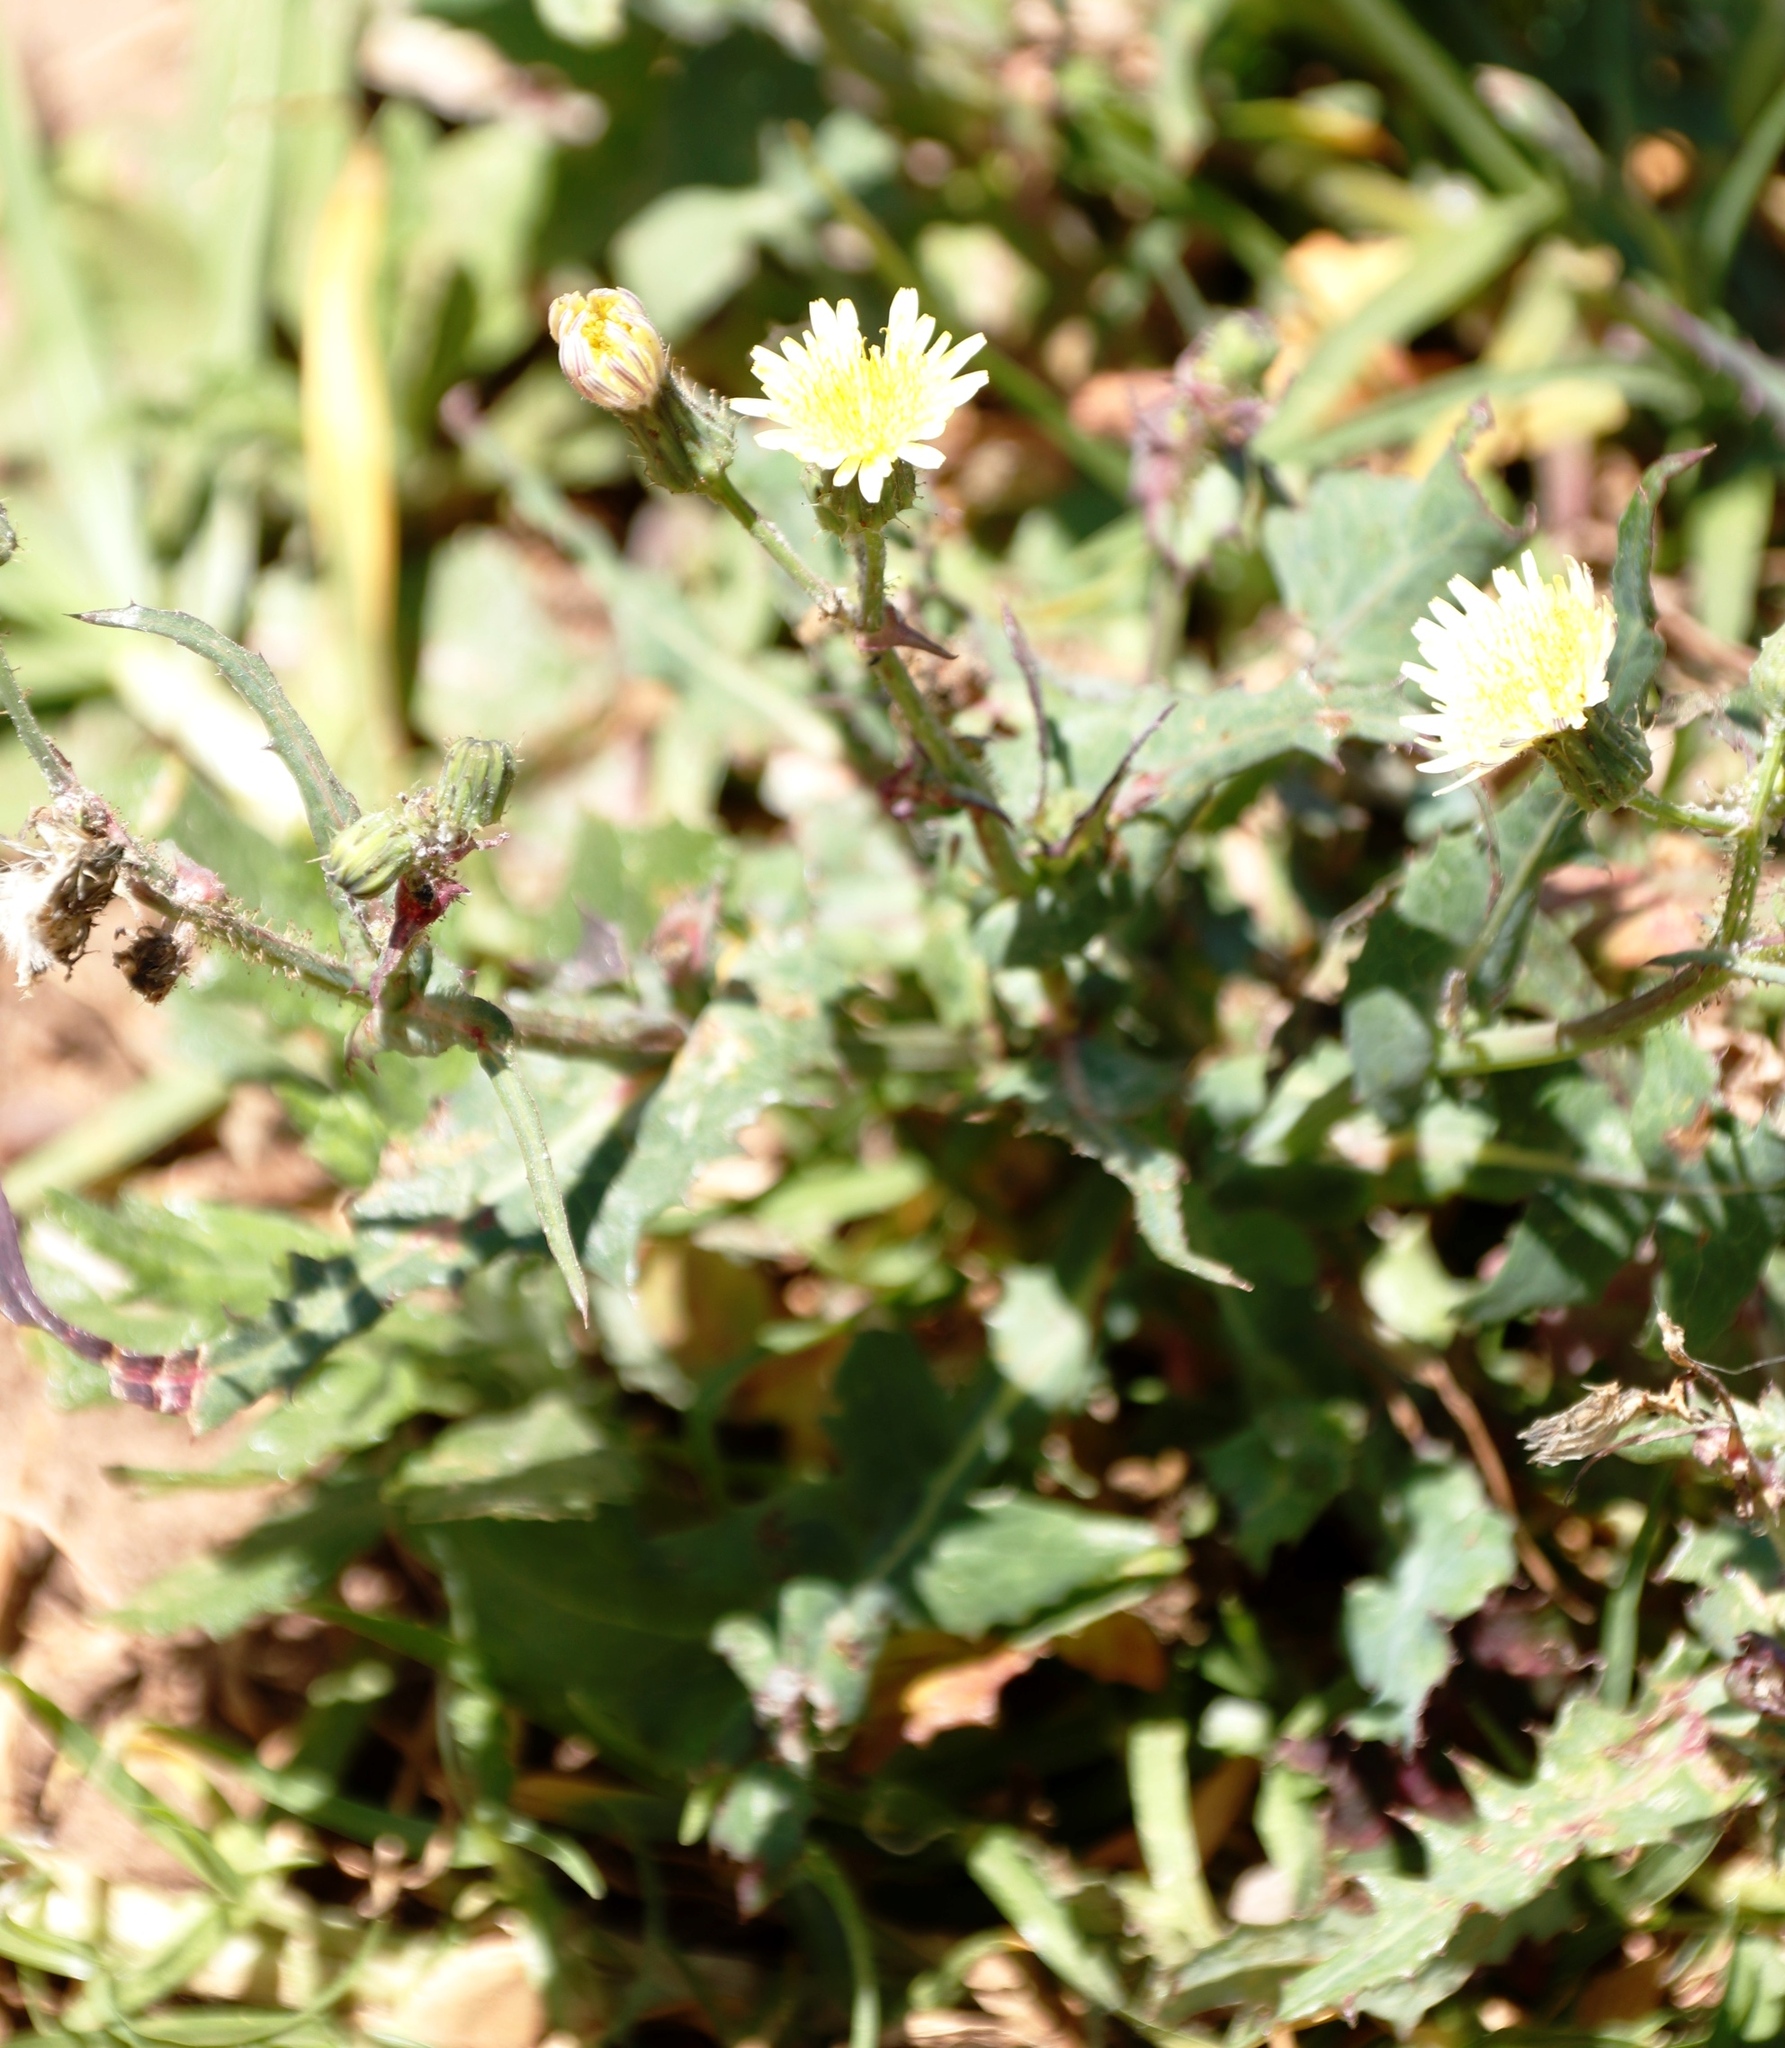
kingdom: Plantae
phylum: Tracheophyta
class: Magnoliopsida
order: Asterales
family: Asteraceae
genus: Sonchus
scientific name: Sonchus asper
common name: Prickly sow-thistle
